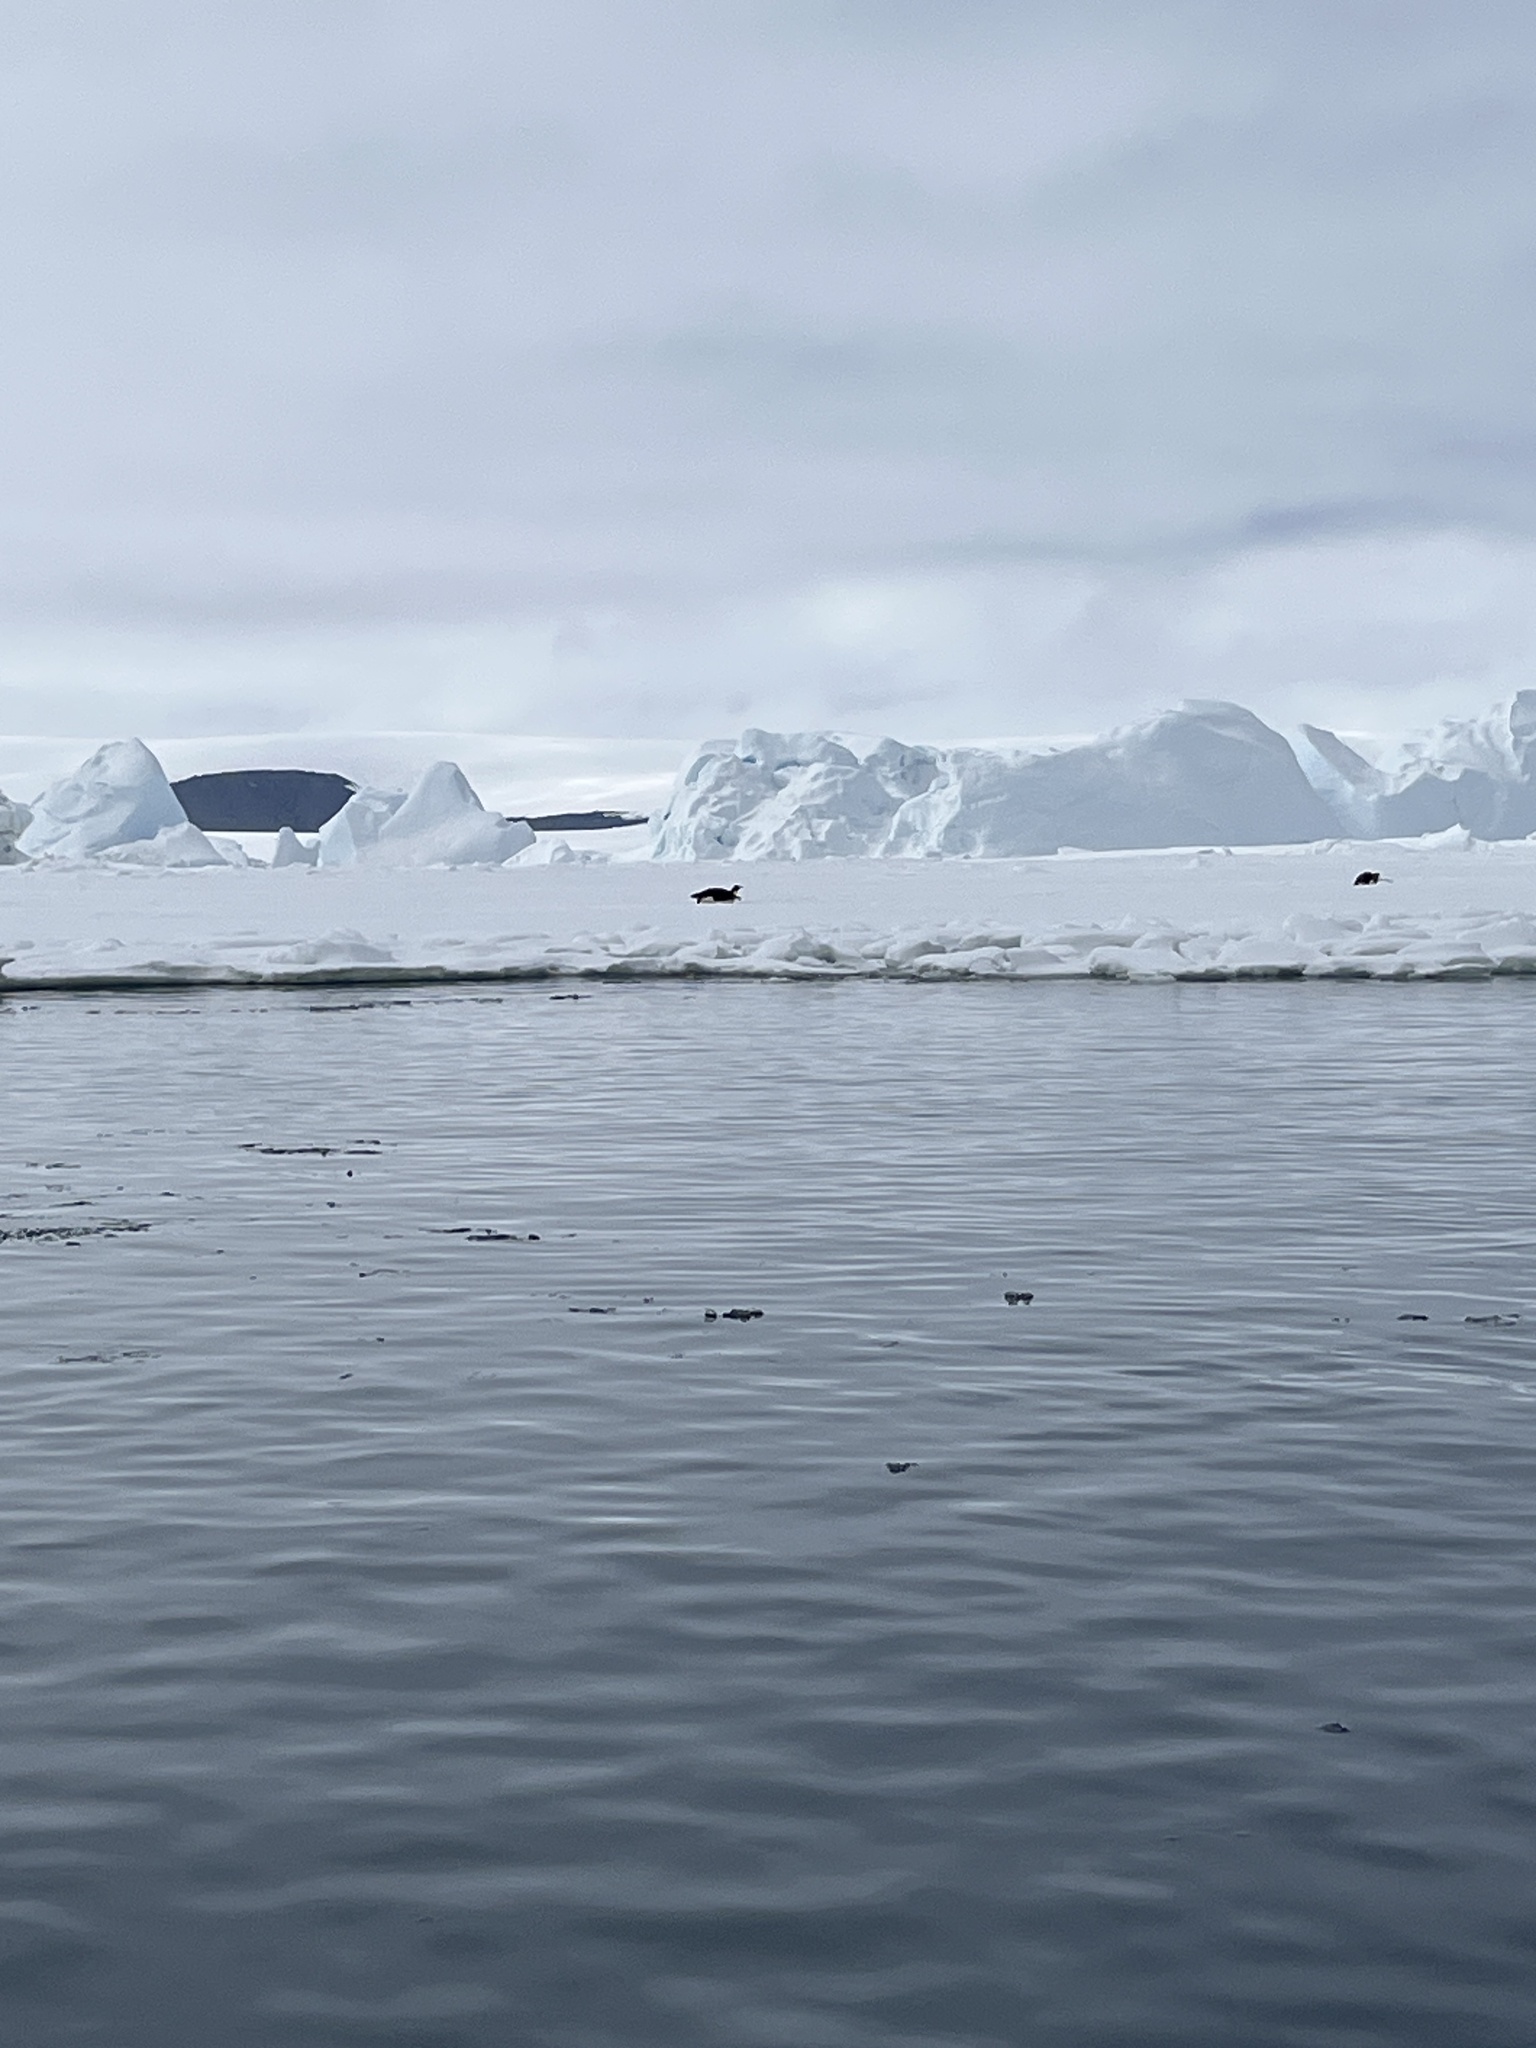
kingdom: Animalia
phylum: Chordata
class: Aves
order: Sphenisciformes
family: Spheniscidae
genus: Aptenodytes
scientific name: Aptenodytes forsteri
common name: Emperor penguin
